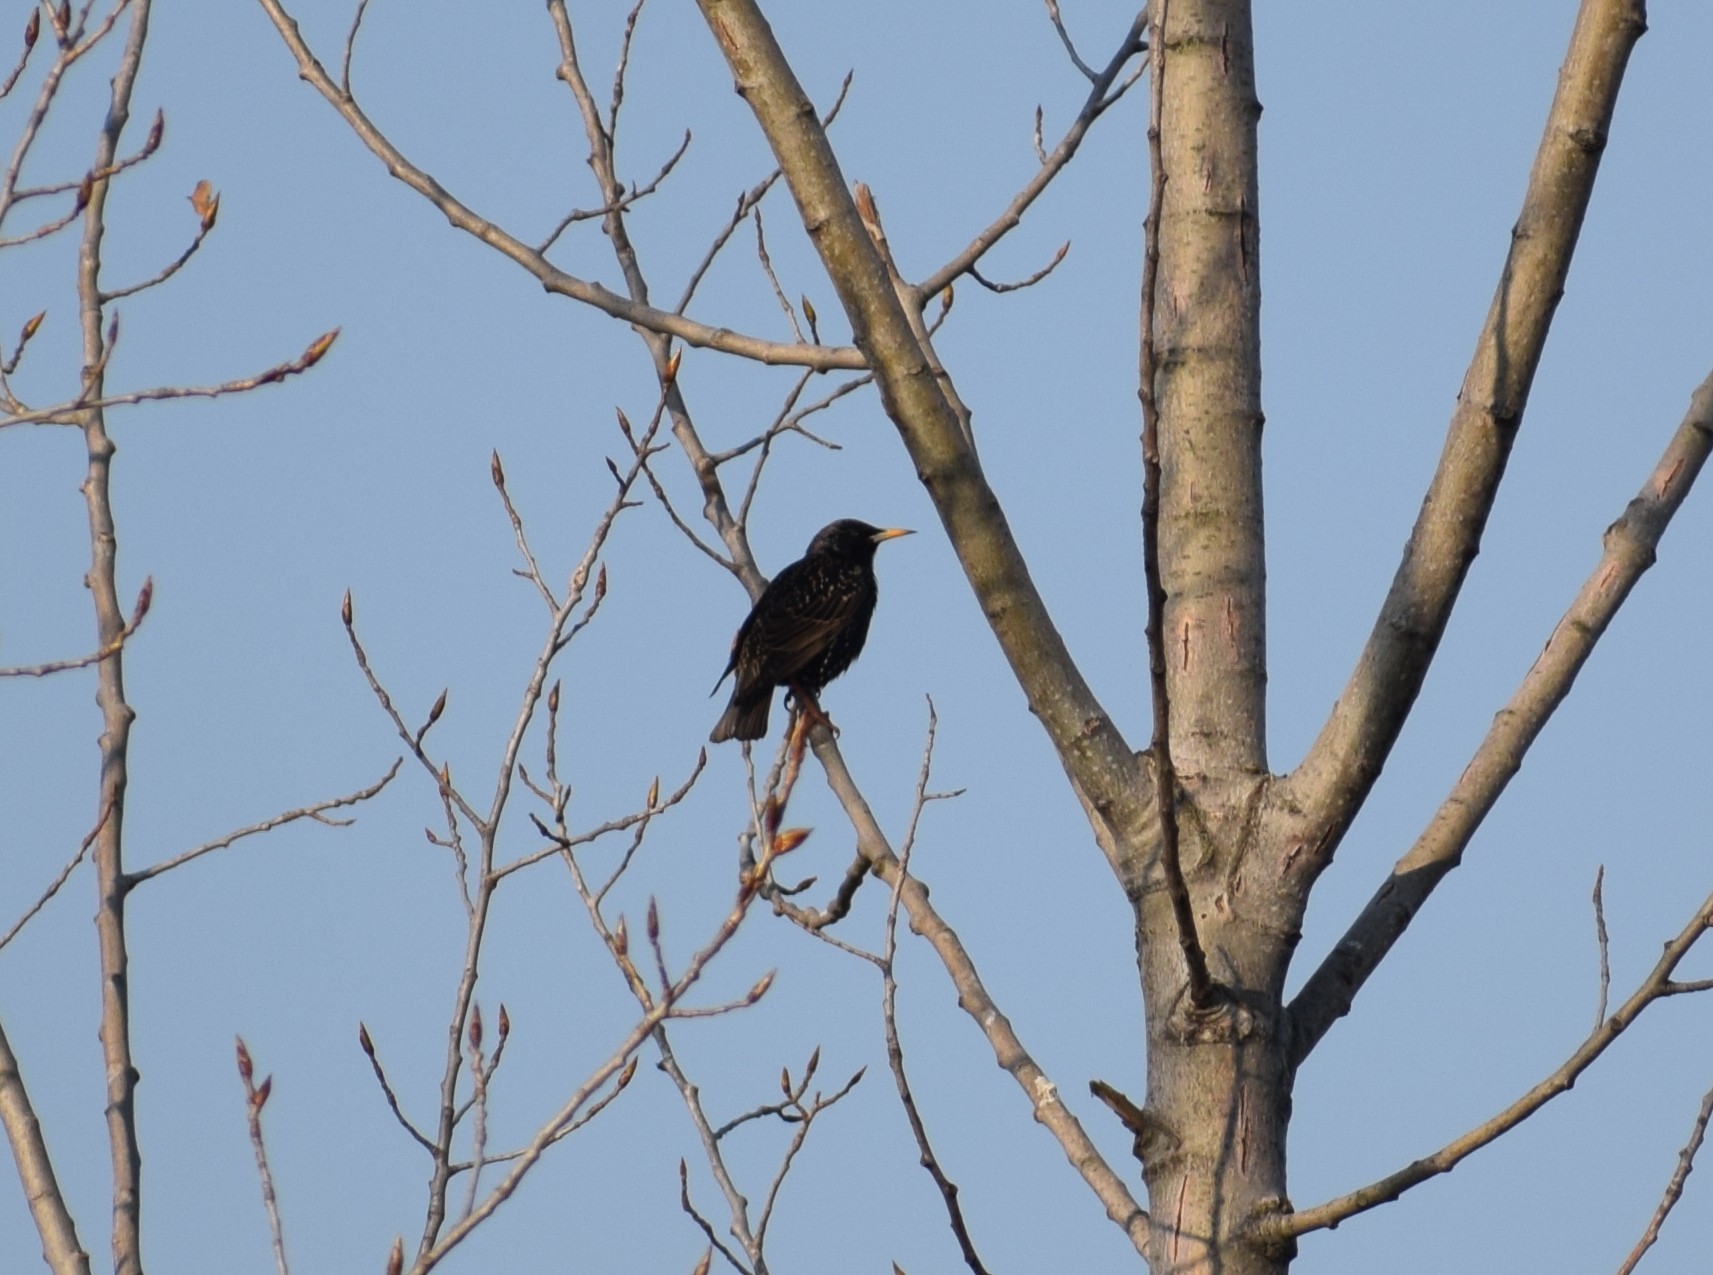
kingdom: Animalia
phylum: Chordata
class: Aves
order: Passeriformes
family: Sturnidae
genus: Sturnus
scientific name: Sturnus vulgaris
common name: Common starling
